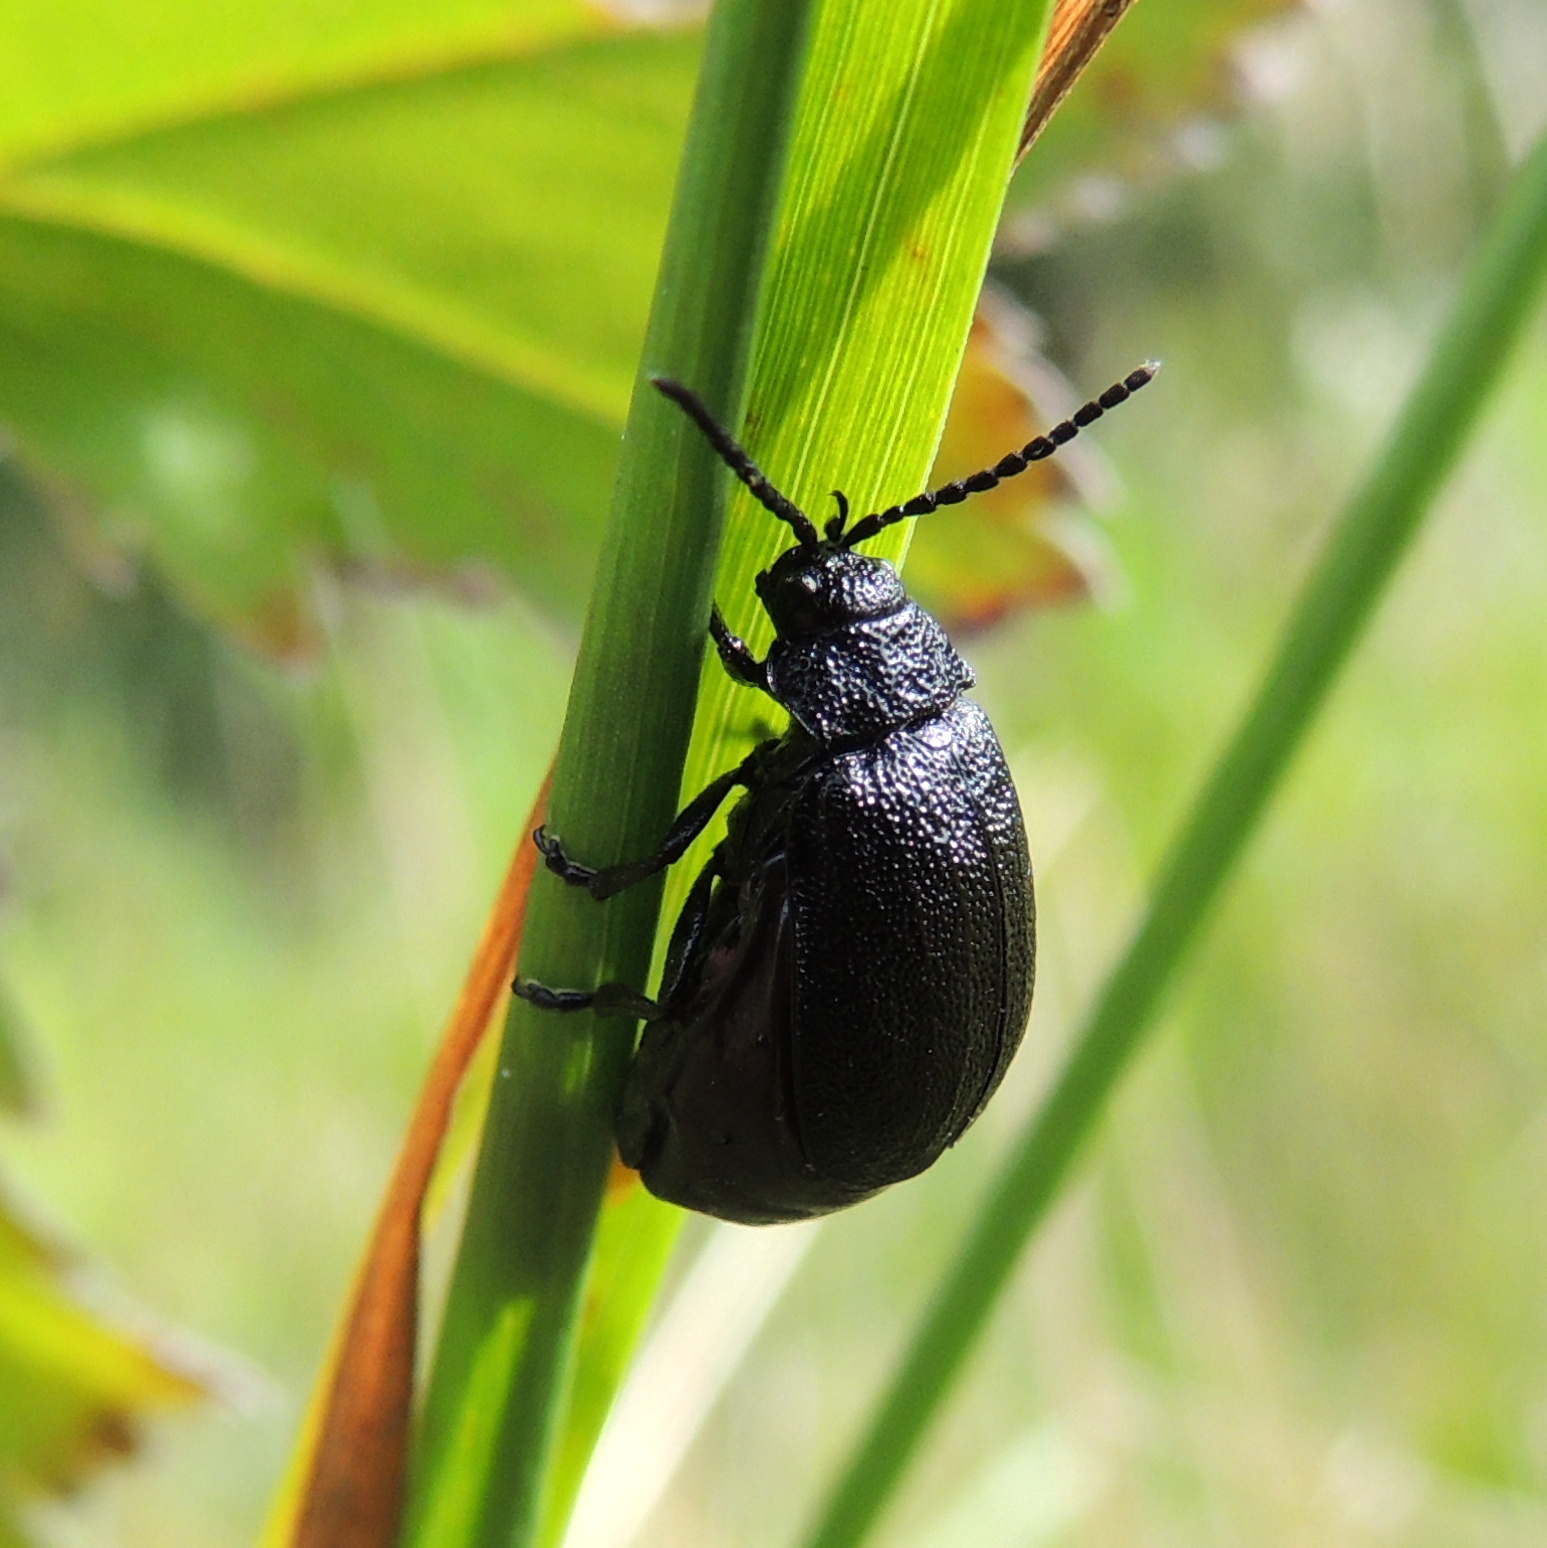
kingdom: Animalia
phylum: Arthropoda
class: Insecta
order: Coleoptera
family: Chrysomelidae
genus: Galeruca
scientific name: Galeruca tanaceti
